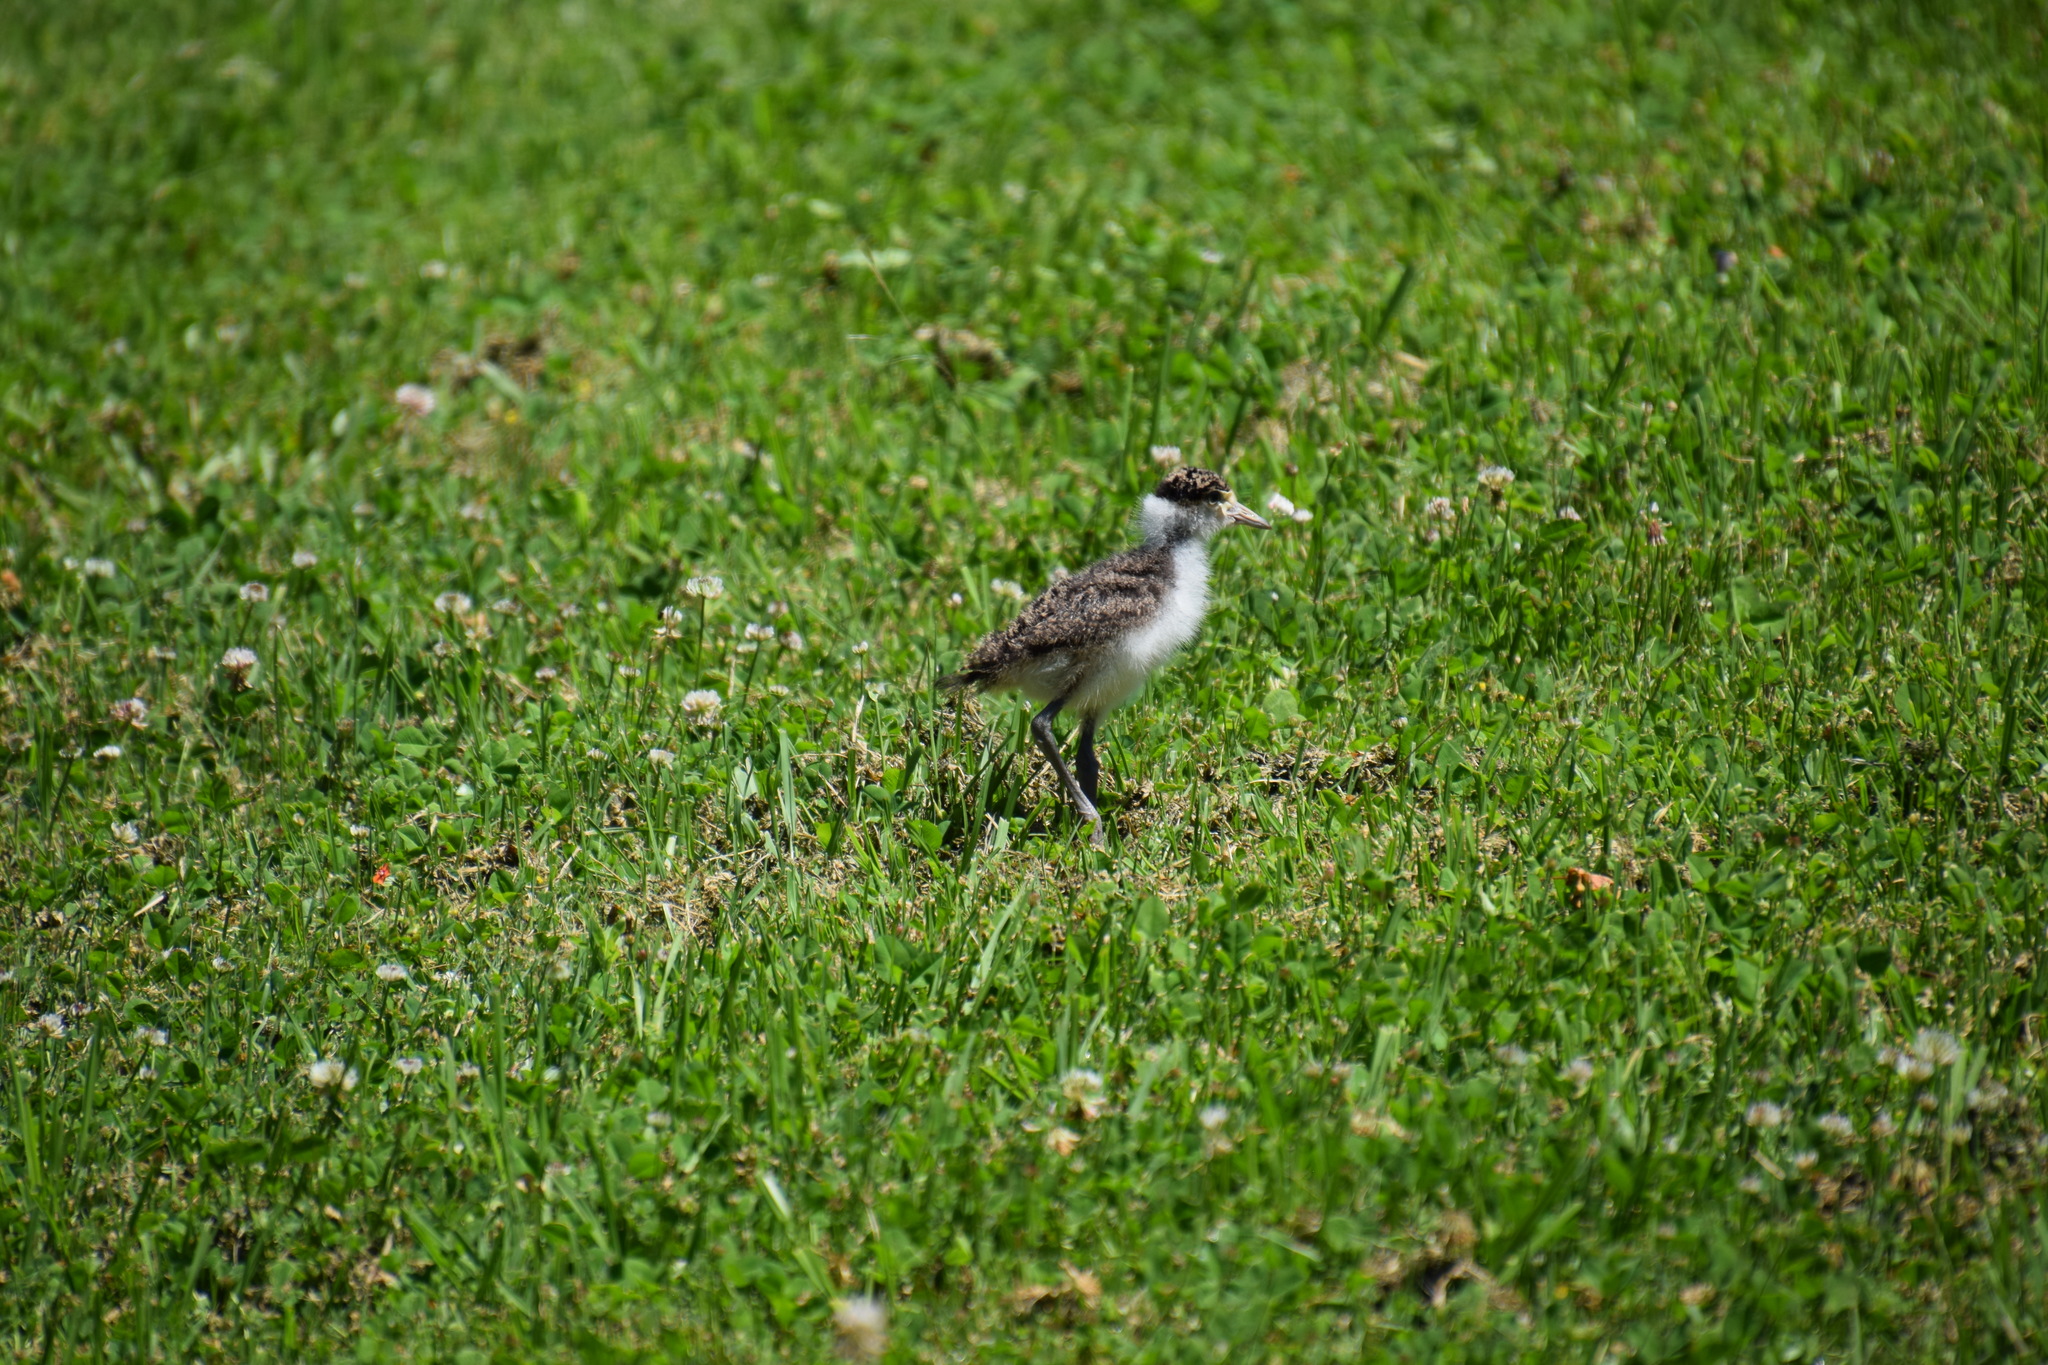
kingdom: Animalia
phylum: Chordata
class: Aves
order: Charadriiformes
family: Charadriidae
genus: Vanellus
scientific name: Vanellus miles
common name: Masked lapwing
